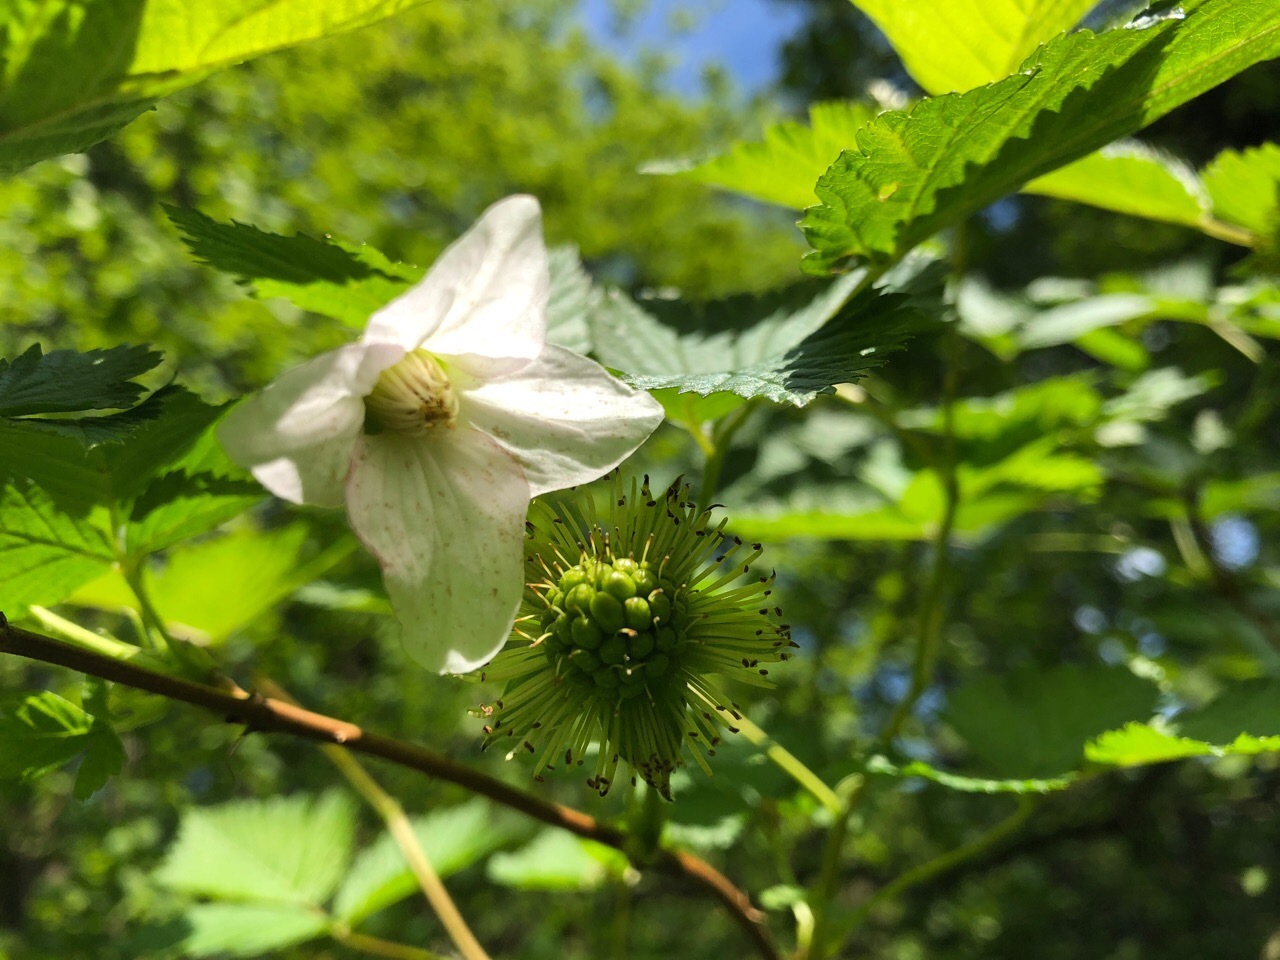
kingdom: Plantae
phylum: Tracheophyta
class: Magnoliopsida
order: Rosales
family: Rosaceae
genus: Rubus
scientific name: Rubus spectabilis
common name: Salmonberry
